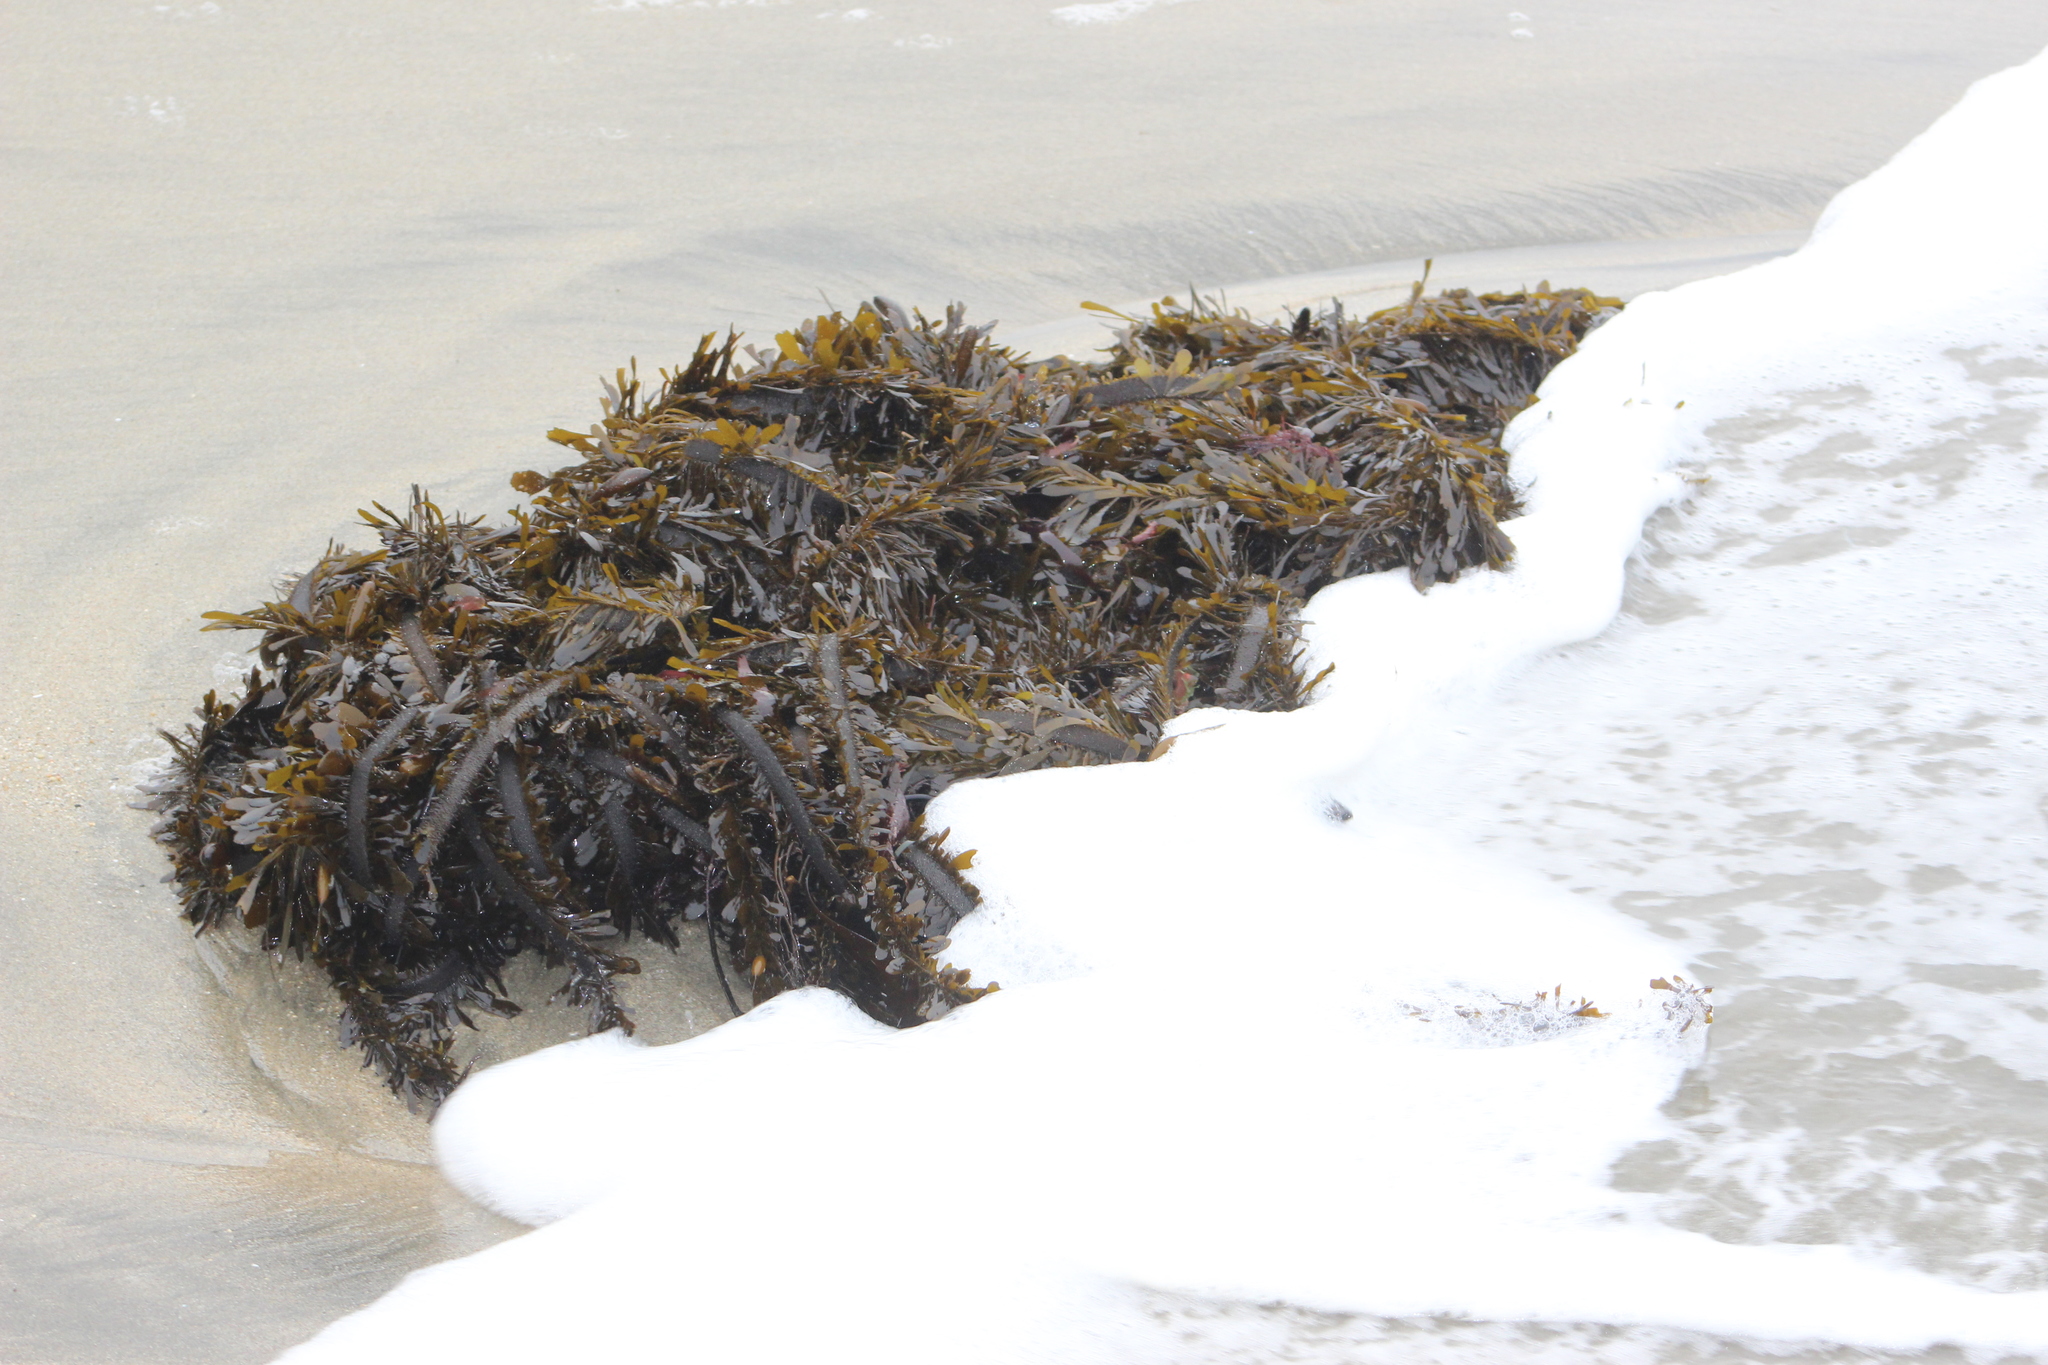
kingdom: Chromista
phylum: Ochrophyta
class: Phaeophyceae
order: Laminariales
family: Lessoniaceae
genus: Egregia
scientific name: Egregia menziesii
